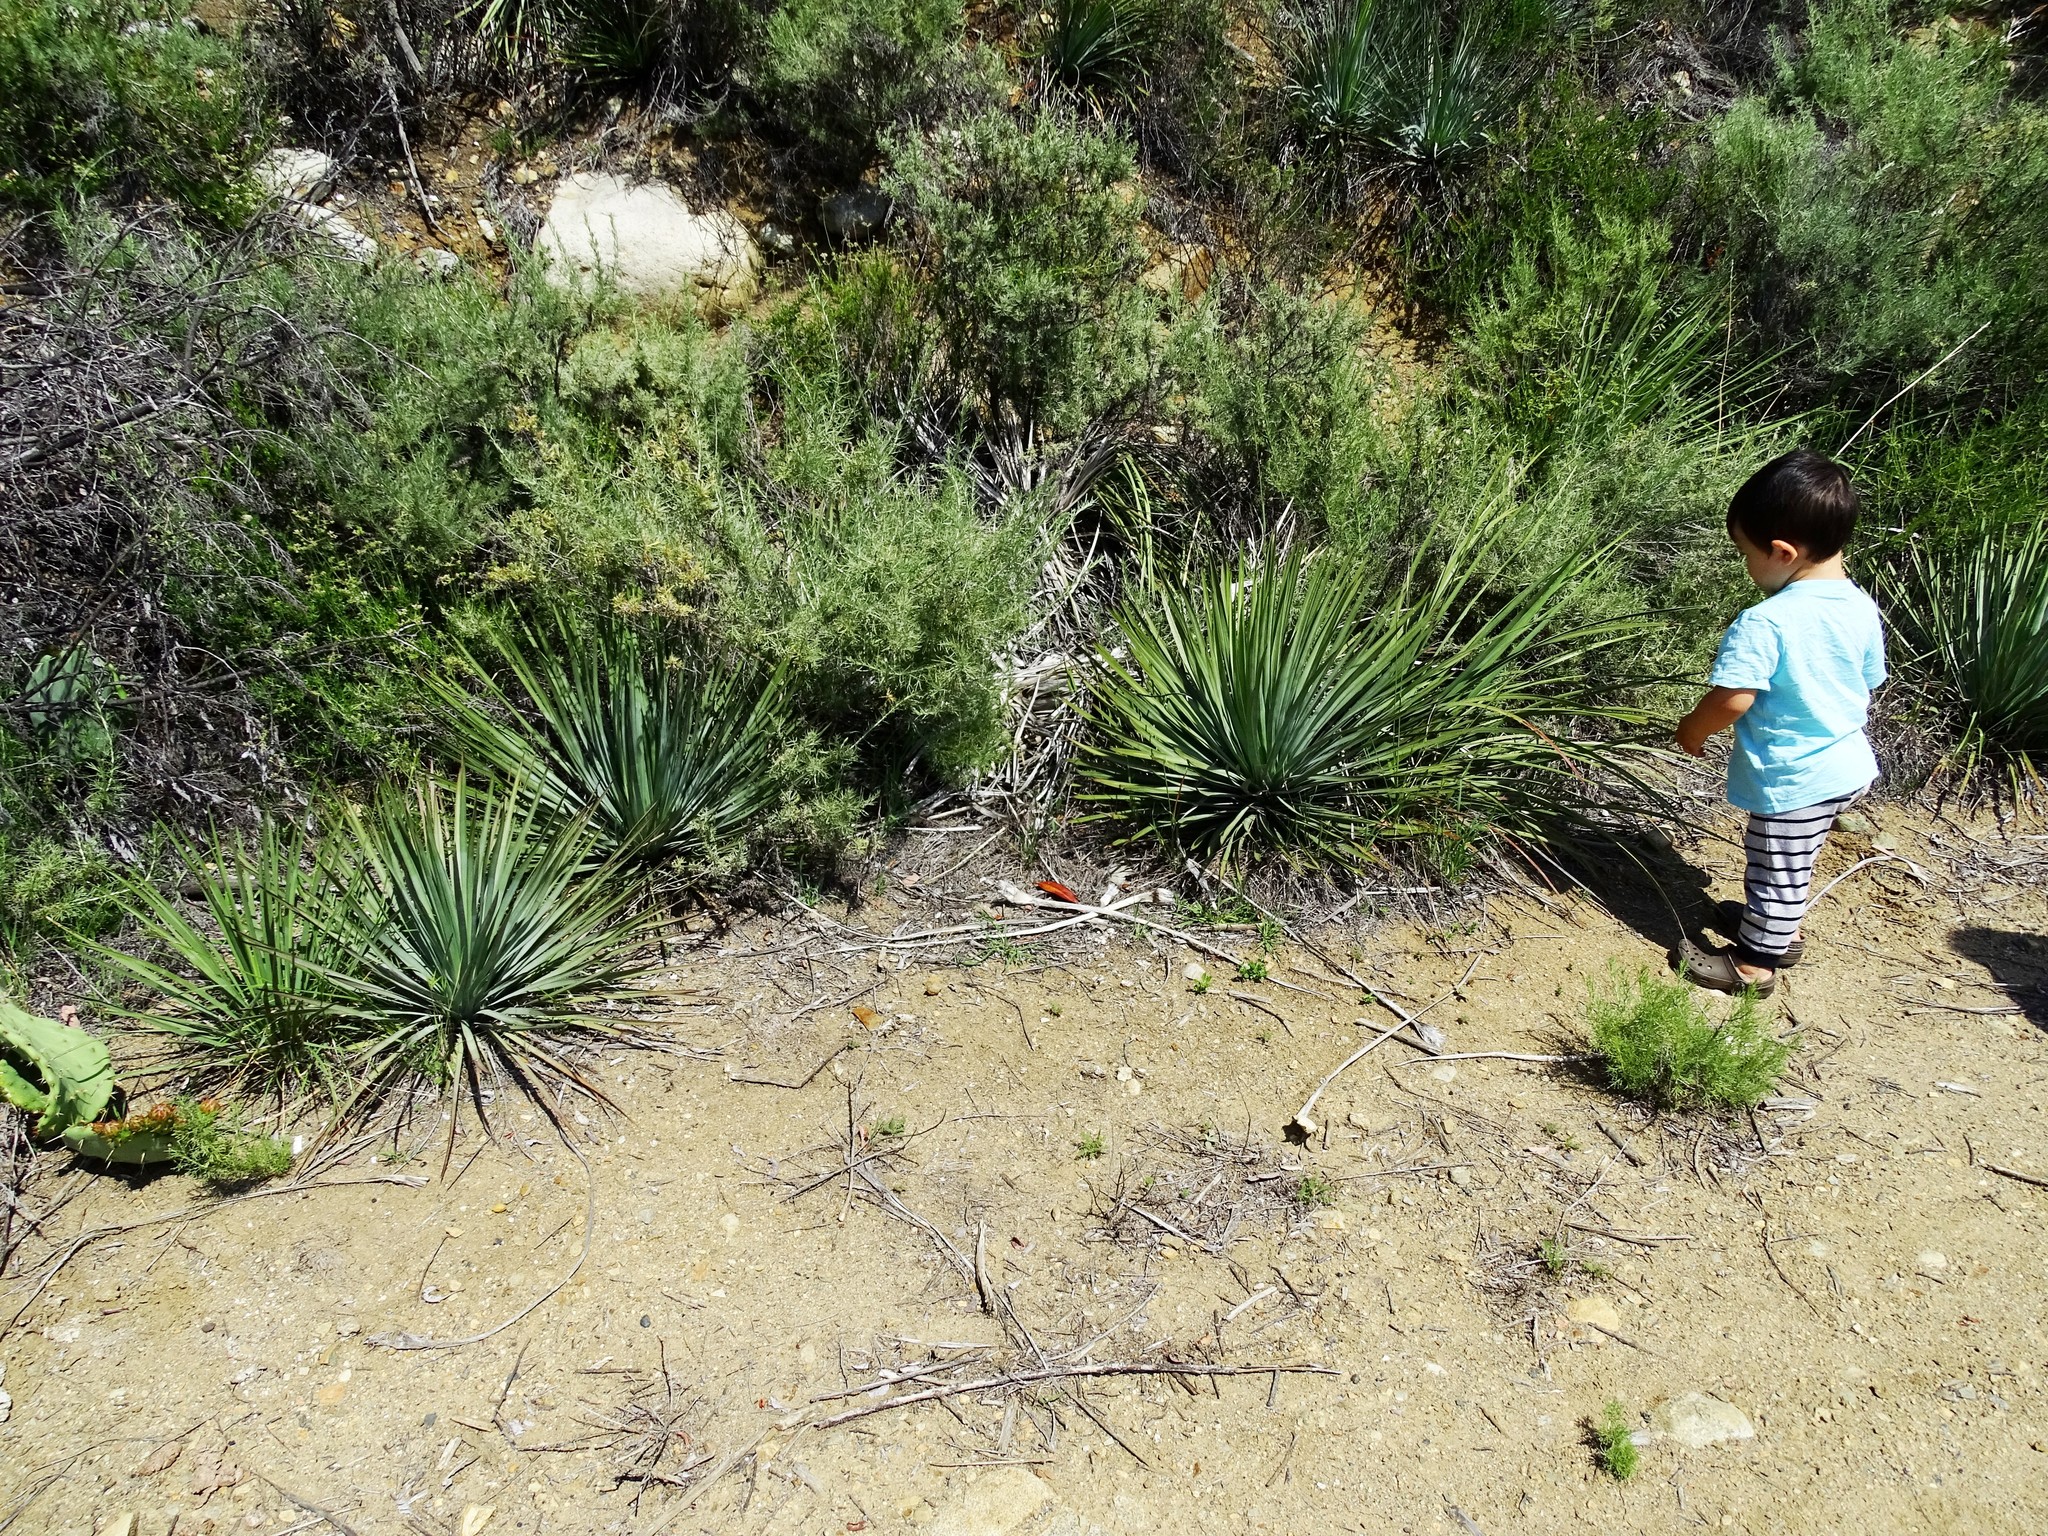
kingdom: Plantae
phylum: Tracheophyta
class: Liliopsida
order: Asparagales
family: Asparagaceae
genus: Hesperoyucca
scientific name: Hesperoyucca whipplei
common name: Our lord's-candle
